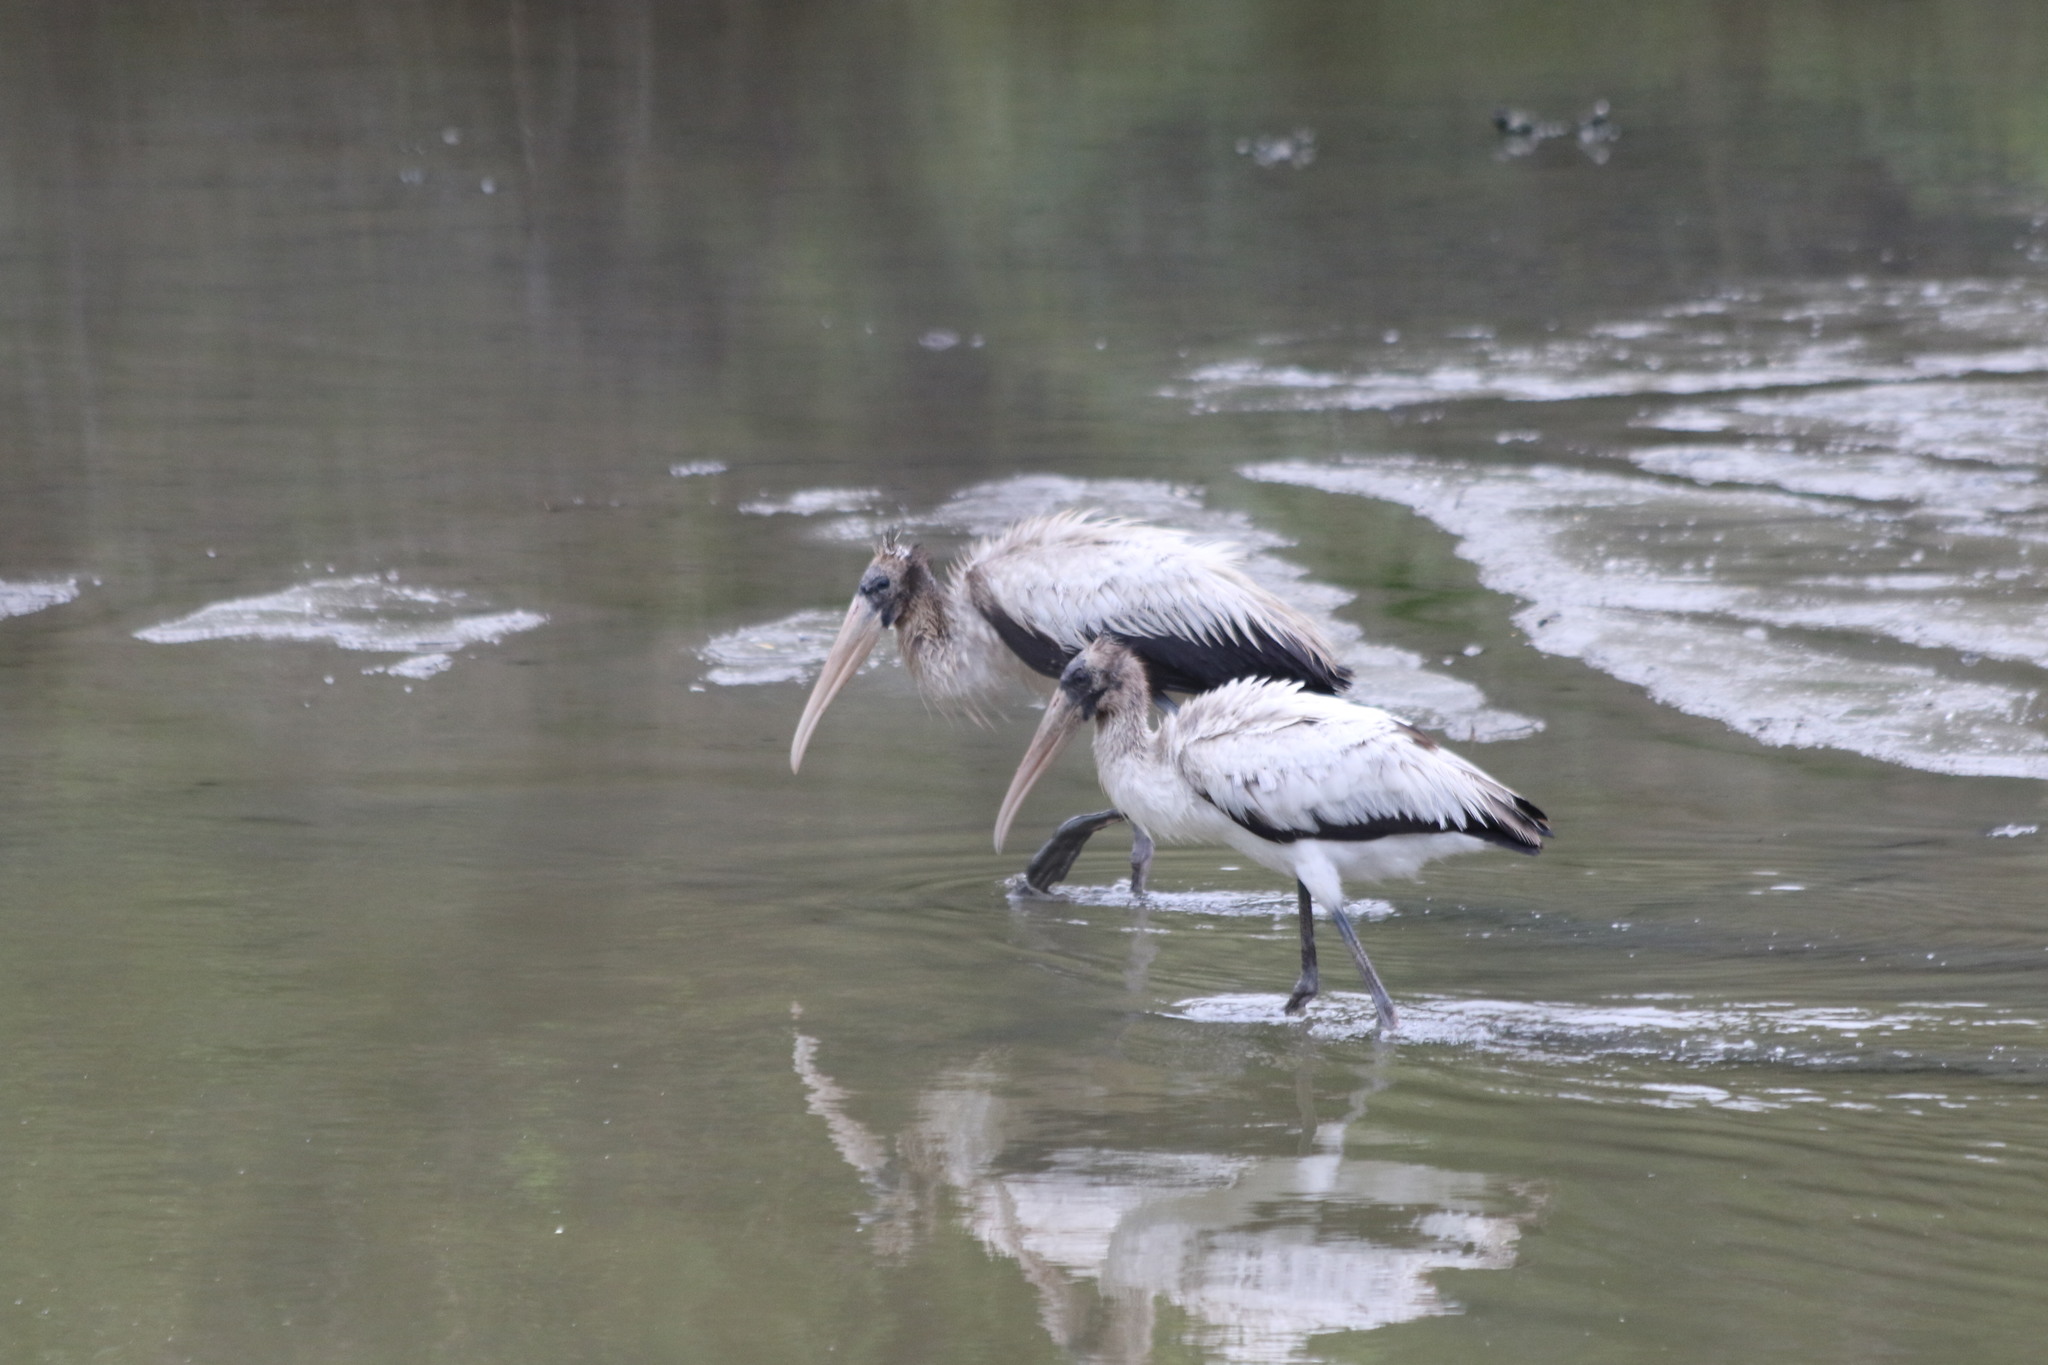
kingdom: Animalia
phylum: Chordata
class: Aves
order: Ciconiiformes
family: Ciconiidae
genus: Mycteria
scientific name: Mycteria americana
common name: Wood stork
